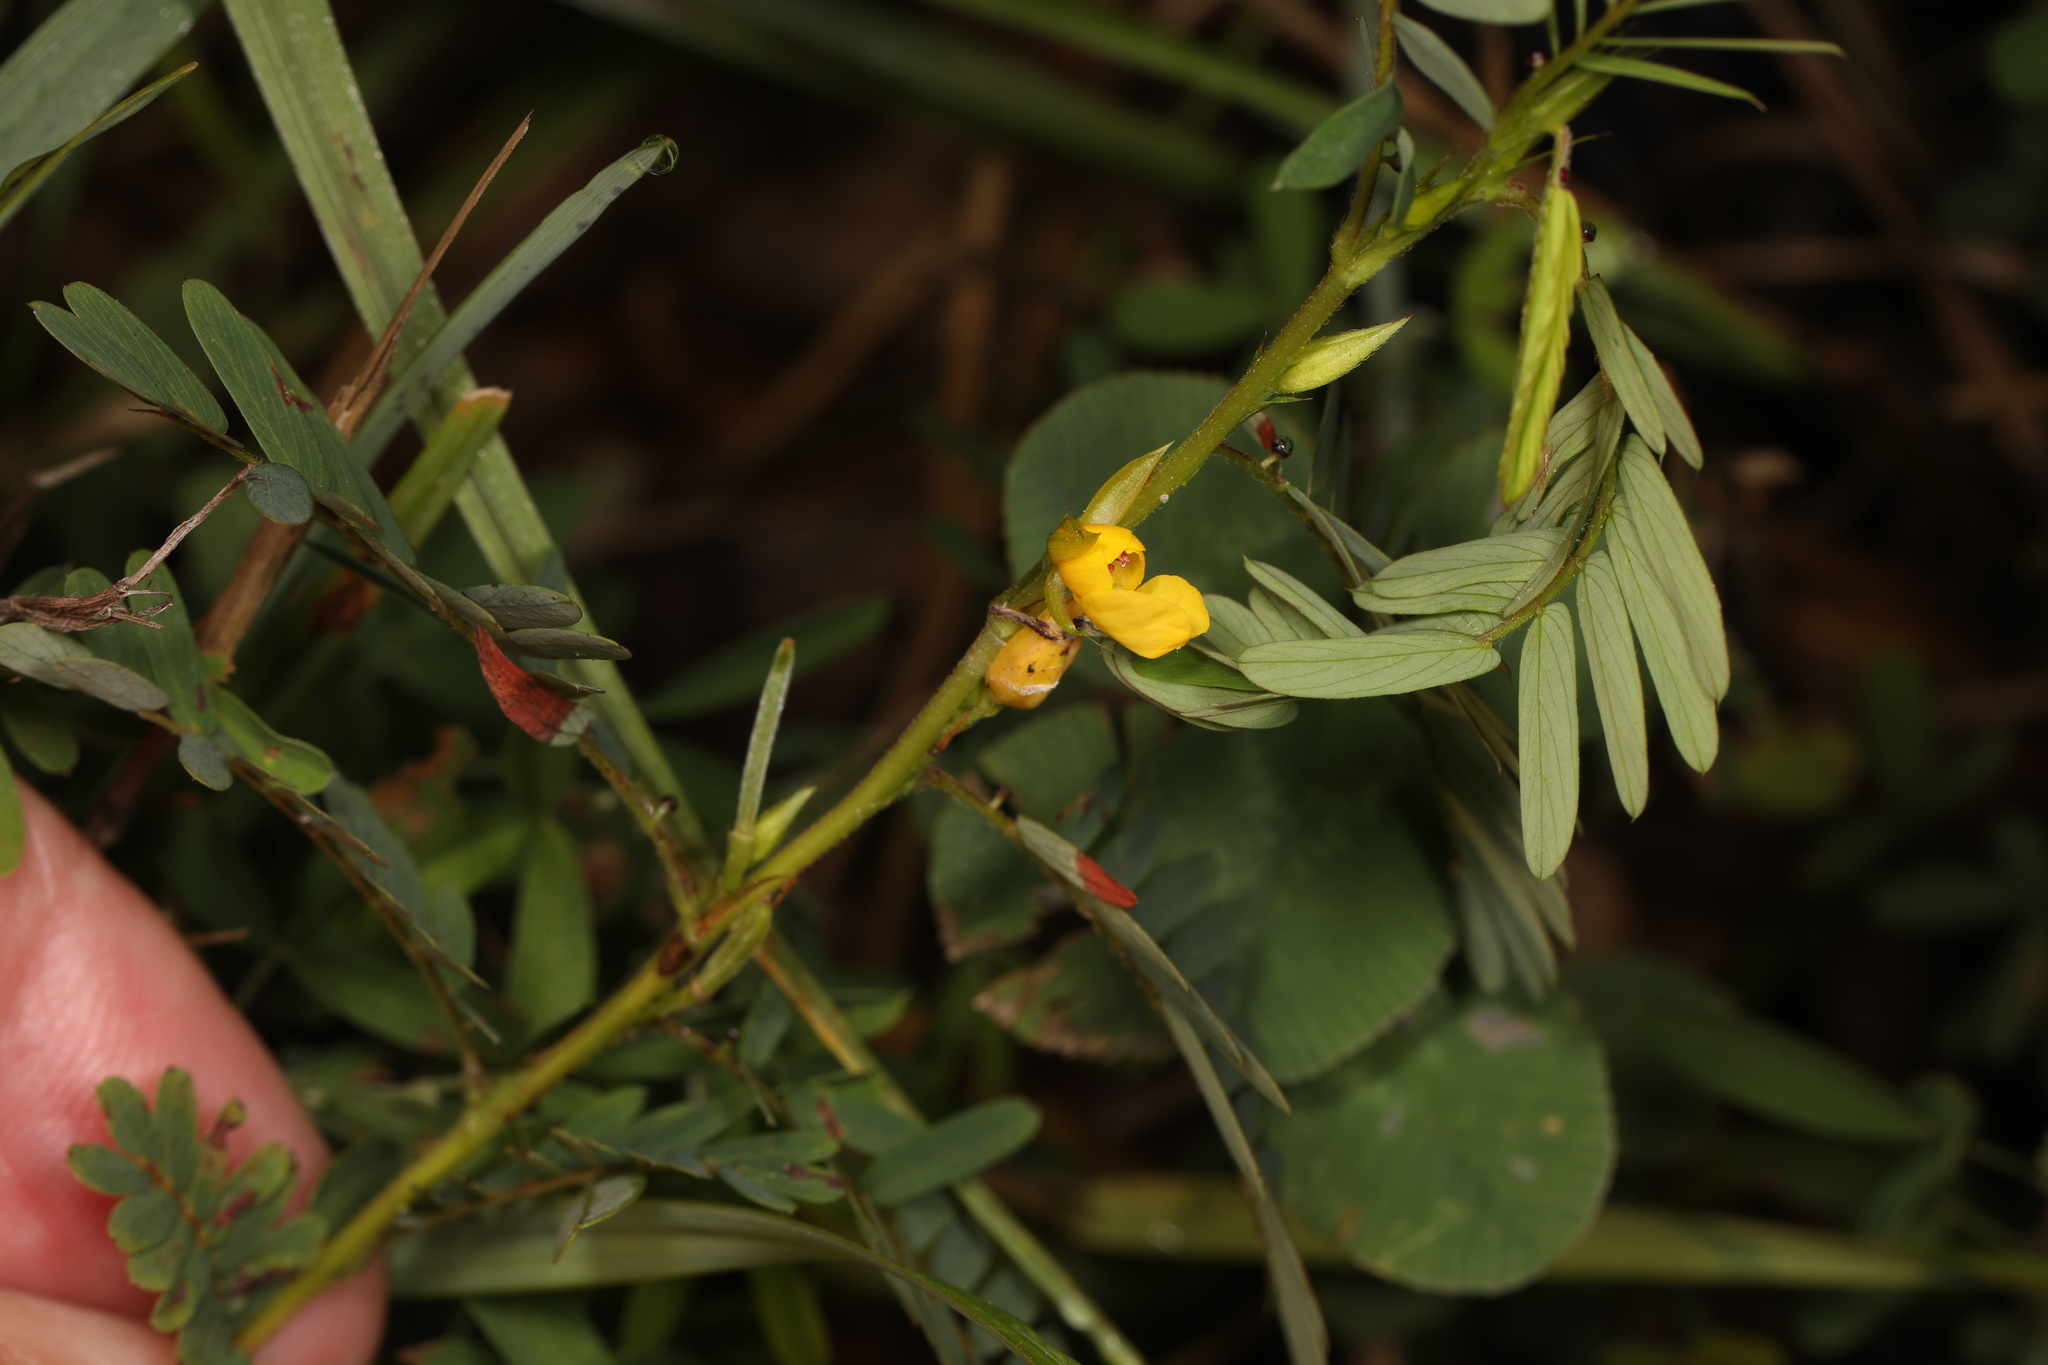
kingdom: Plantae
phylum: Tracheophyta
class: Magnoliopsida
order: Fabales
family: Fabaceae
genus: Chamaecrista
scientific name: Chamaecrista nictitans
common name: Sensitive cassia
